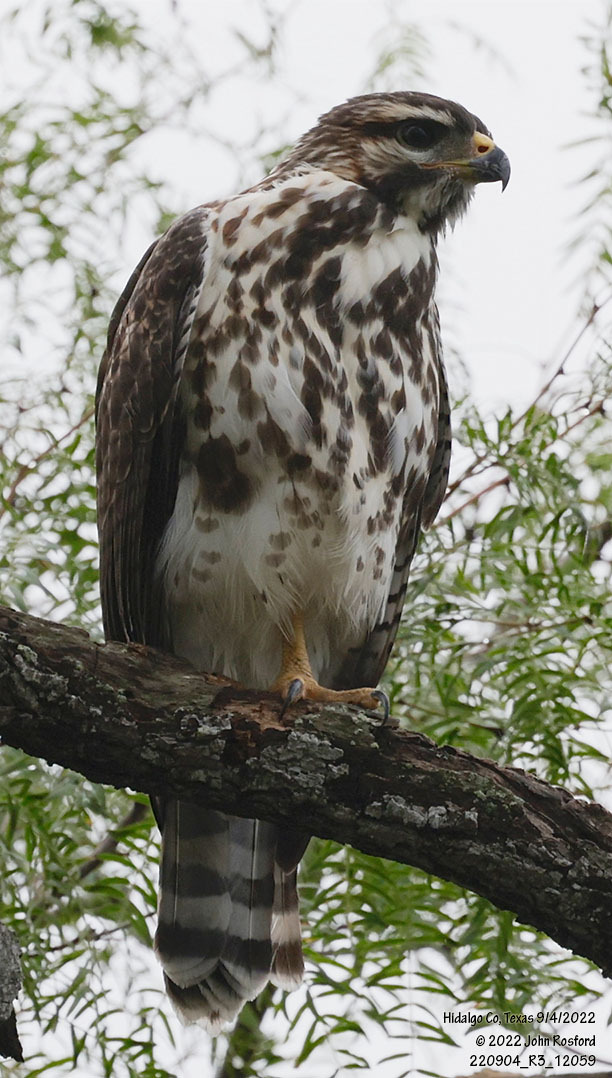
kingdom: Animalia
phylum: Chordata
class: Aves
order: Accipitriformes
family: Accipitridae
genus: Buteo
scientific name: Buteo nitidus
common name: Grey-lined hawk
